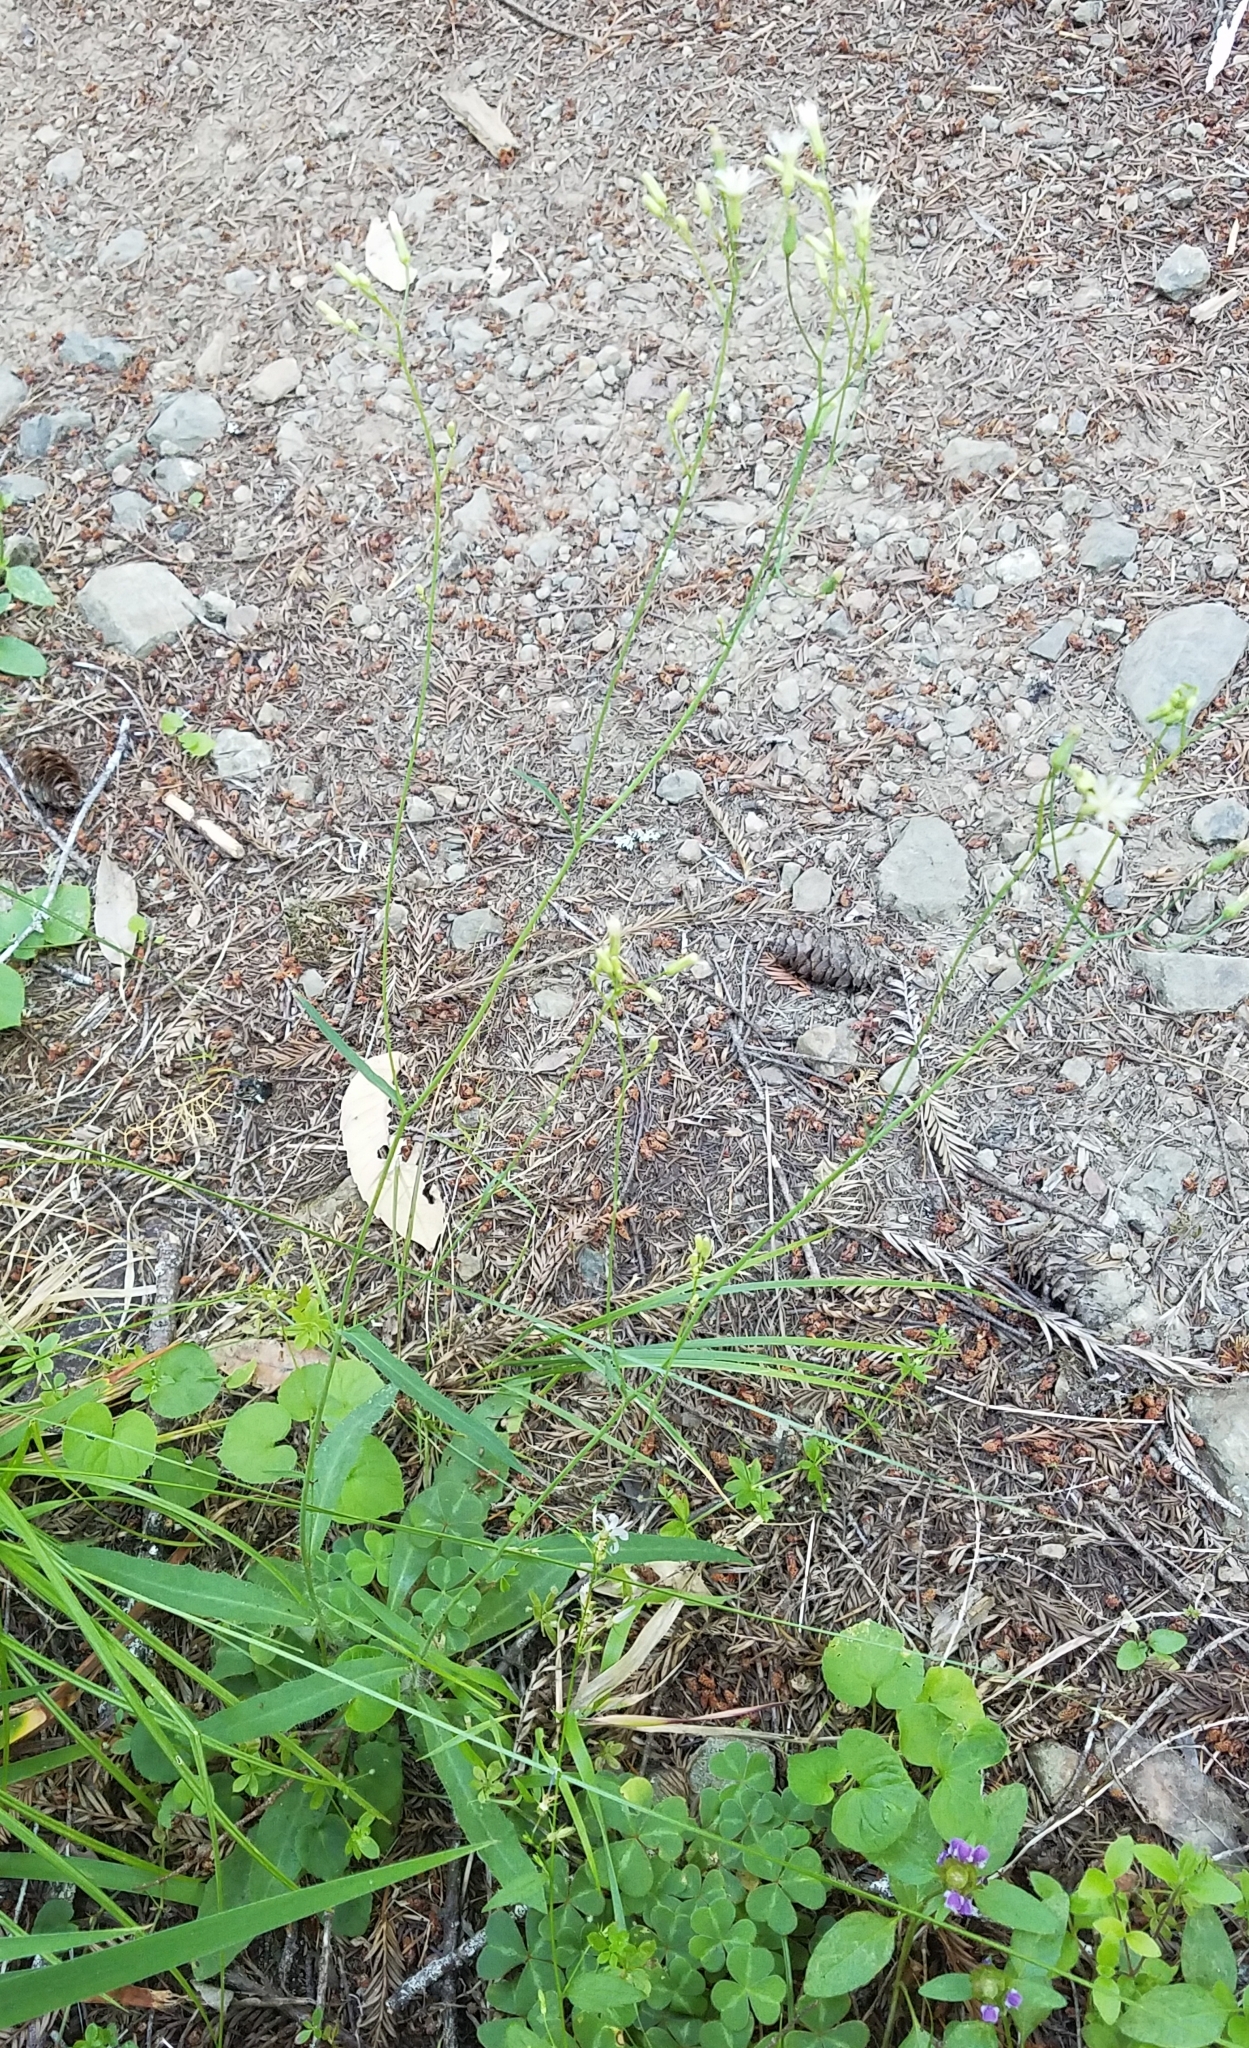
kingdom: Plantae
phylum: Tracheophyta
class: Magnoliopsida
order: Asterales
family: Asteraceae
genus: Hieracium
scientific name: Hieracium albiflorum
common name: White hawkweed
